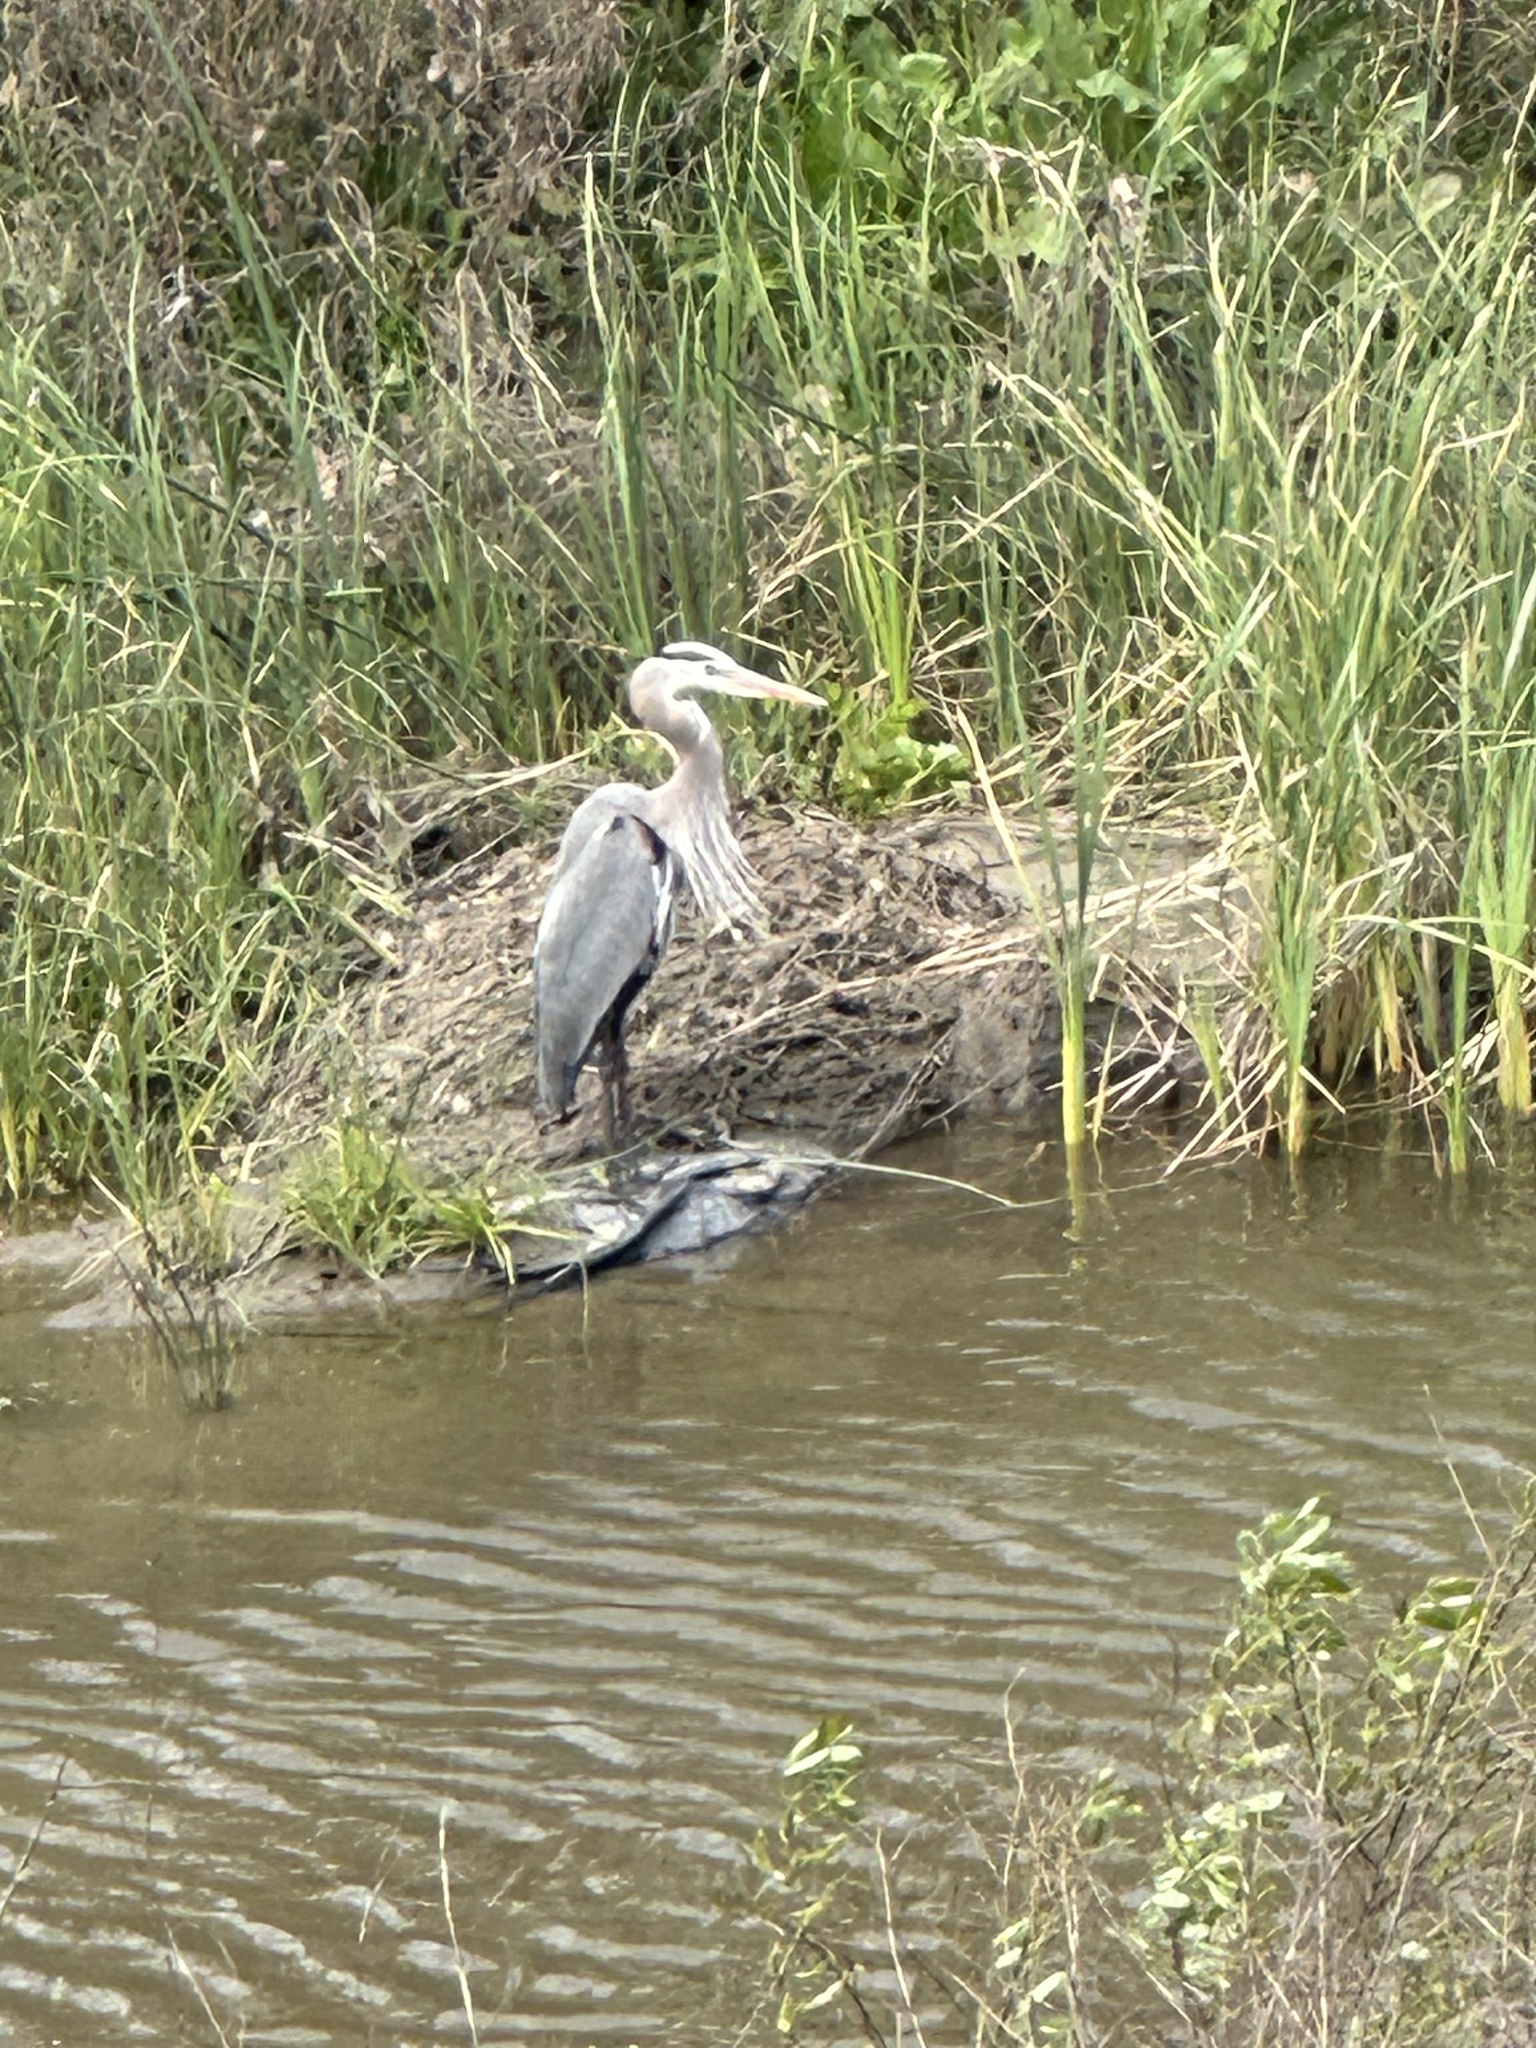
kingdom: Animalia
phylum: Chordata
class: Aves
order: Pelecaniformes
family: Ardeidae
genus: Ardea
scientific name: Ardea herodias
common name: Great blue heron
